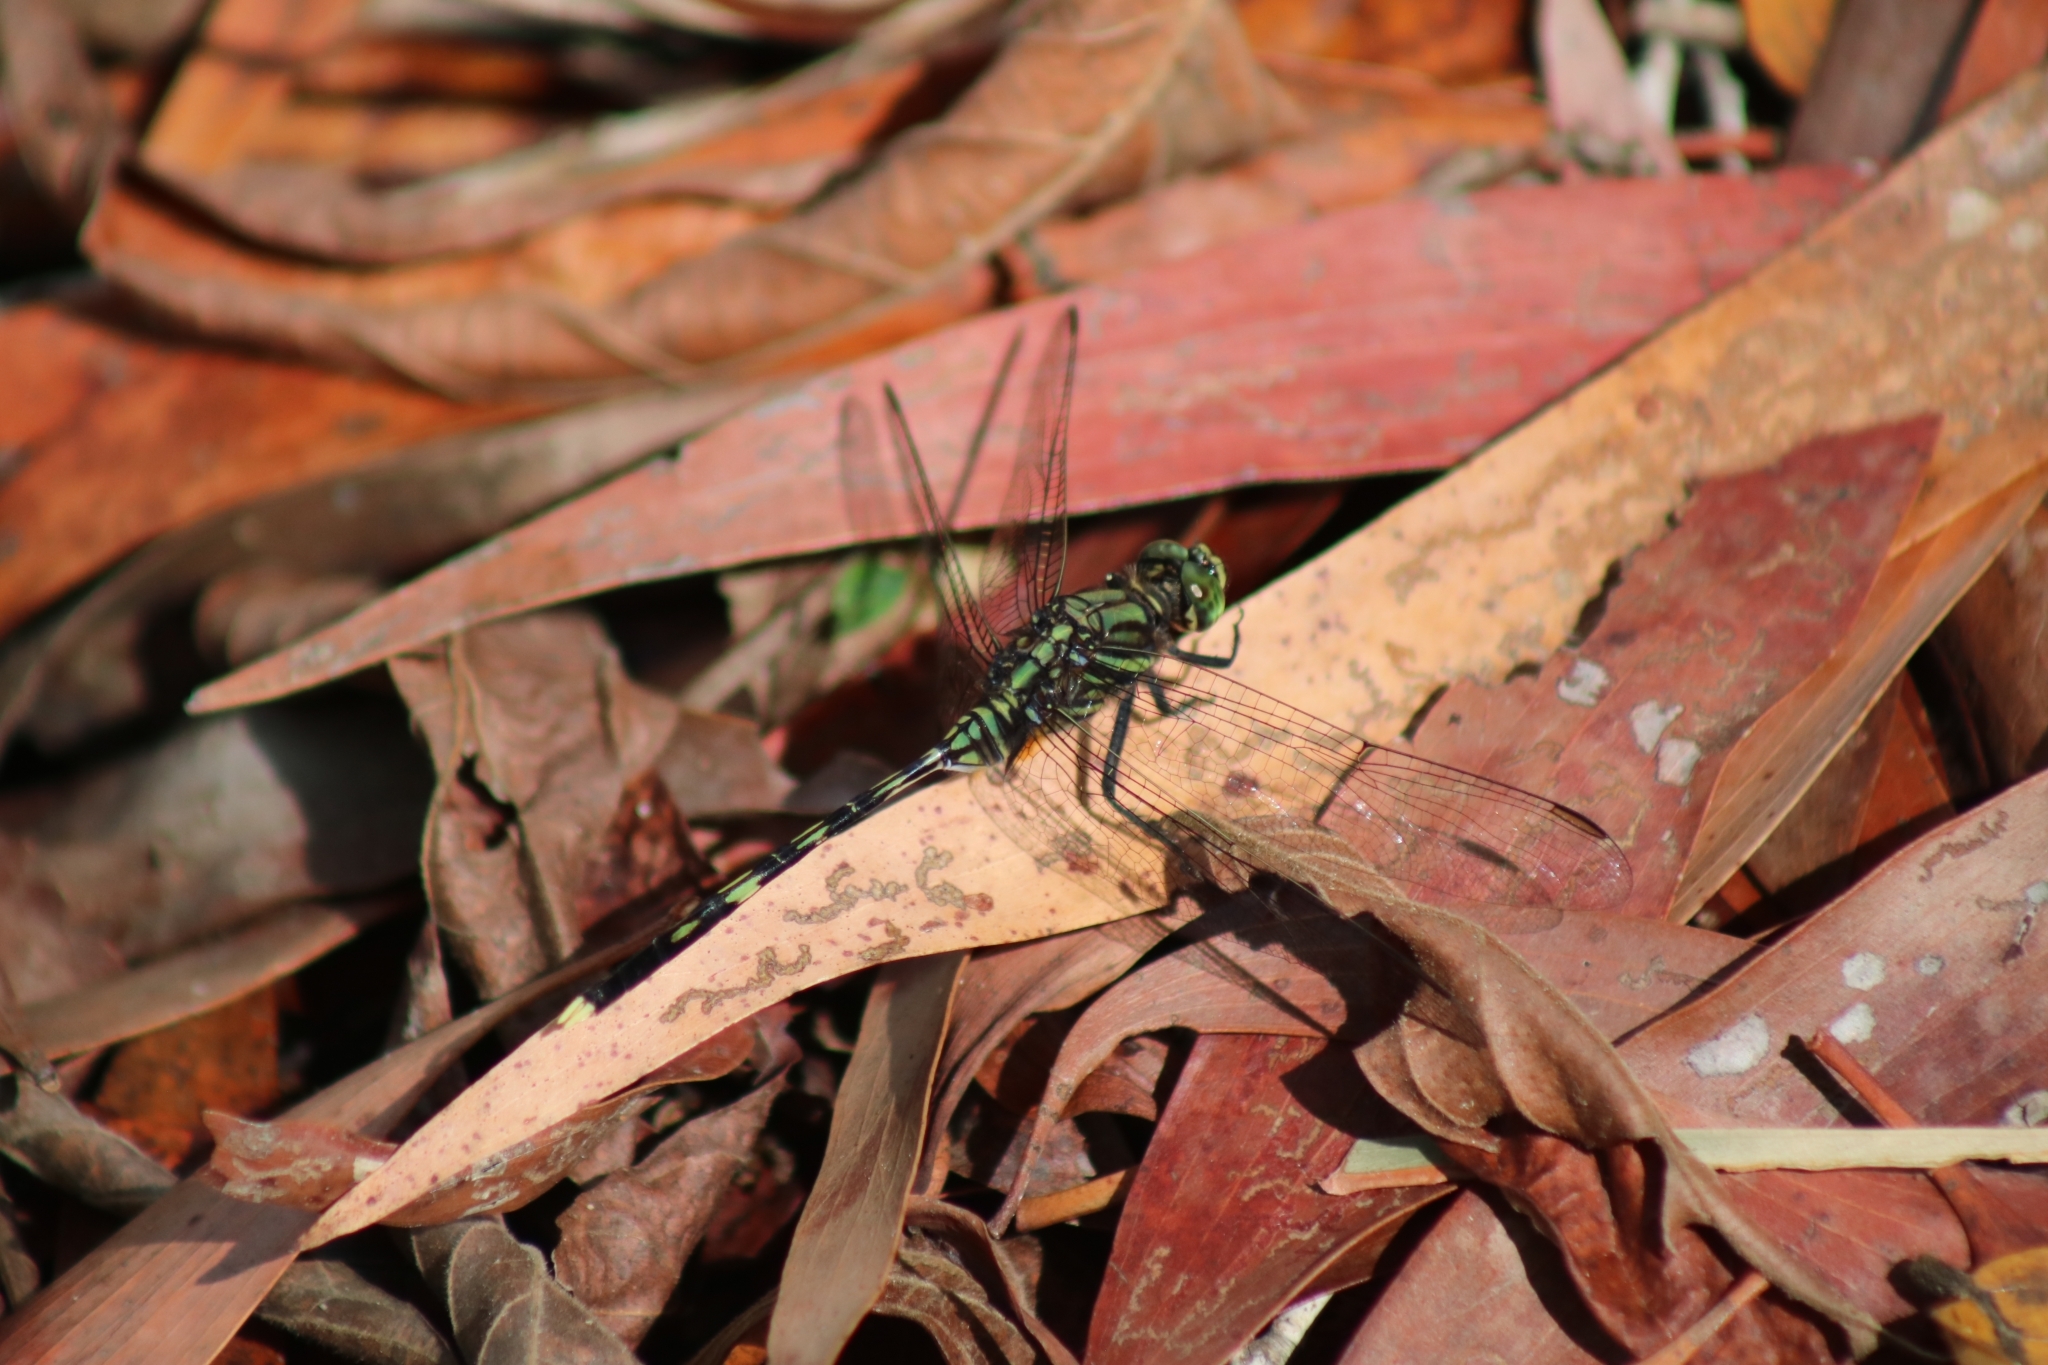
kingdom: Animalia
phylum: Arthropoda
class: Insecta
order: Odonata
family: Libellulidae
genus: Orthetrum
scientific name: Orthetrum serapia
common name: Green skimmer
